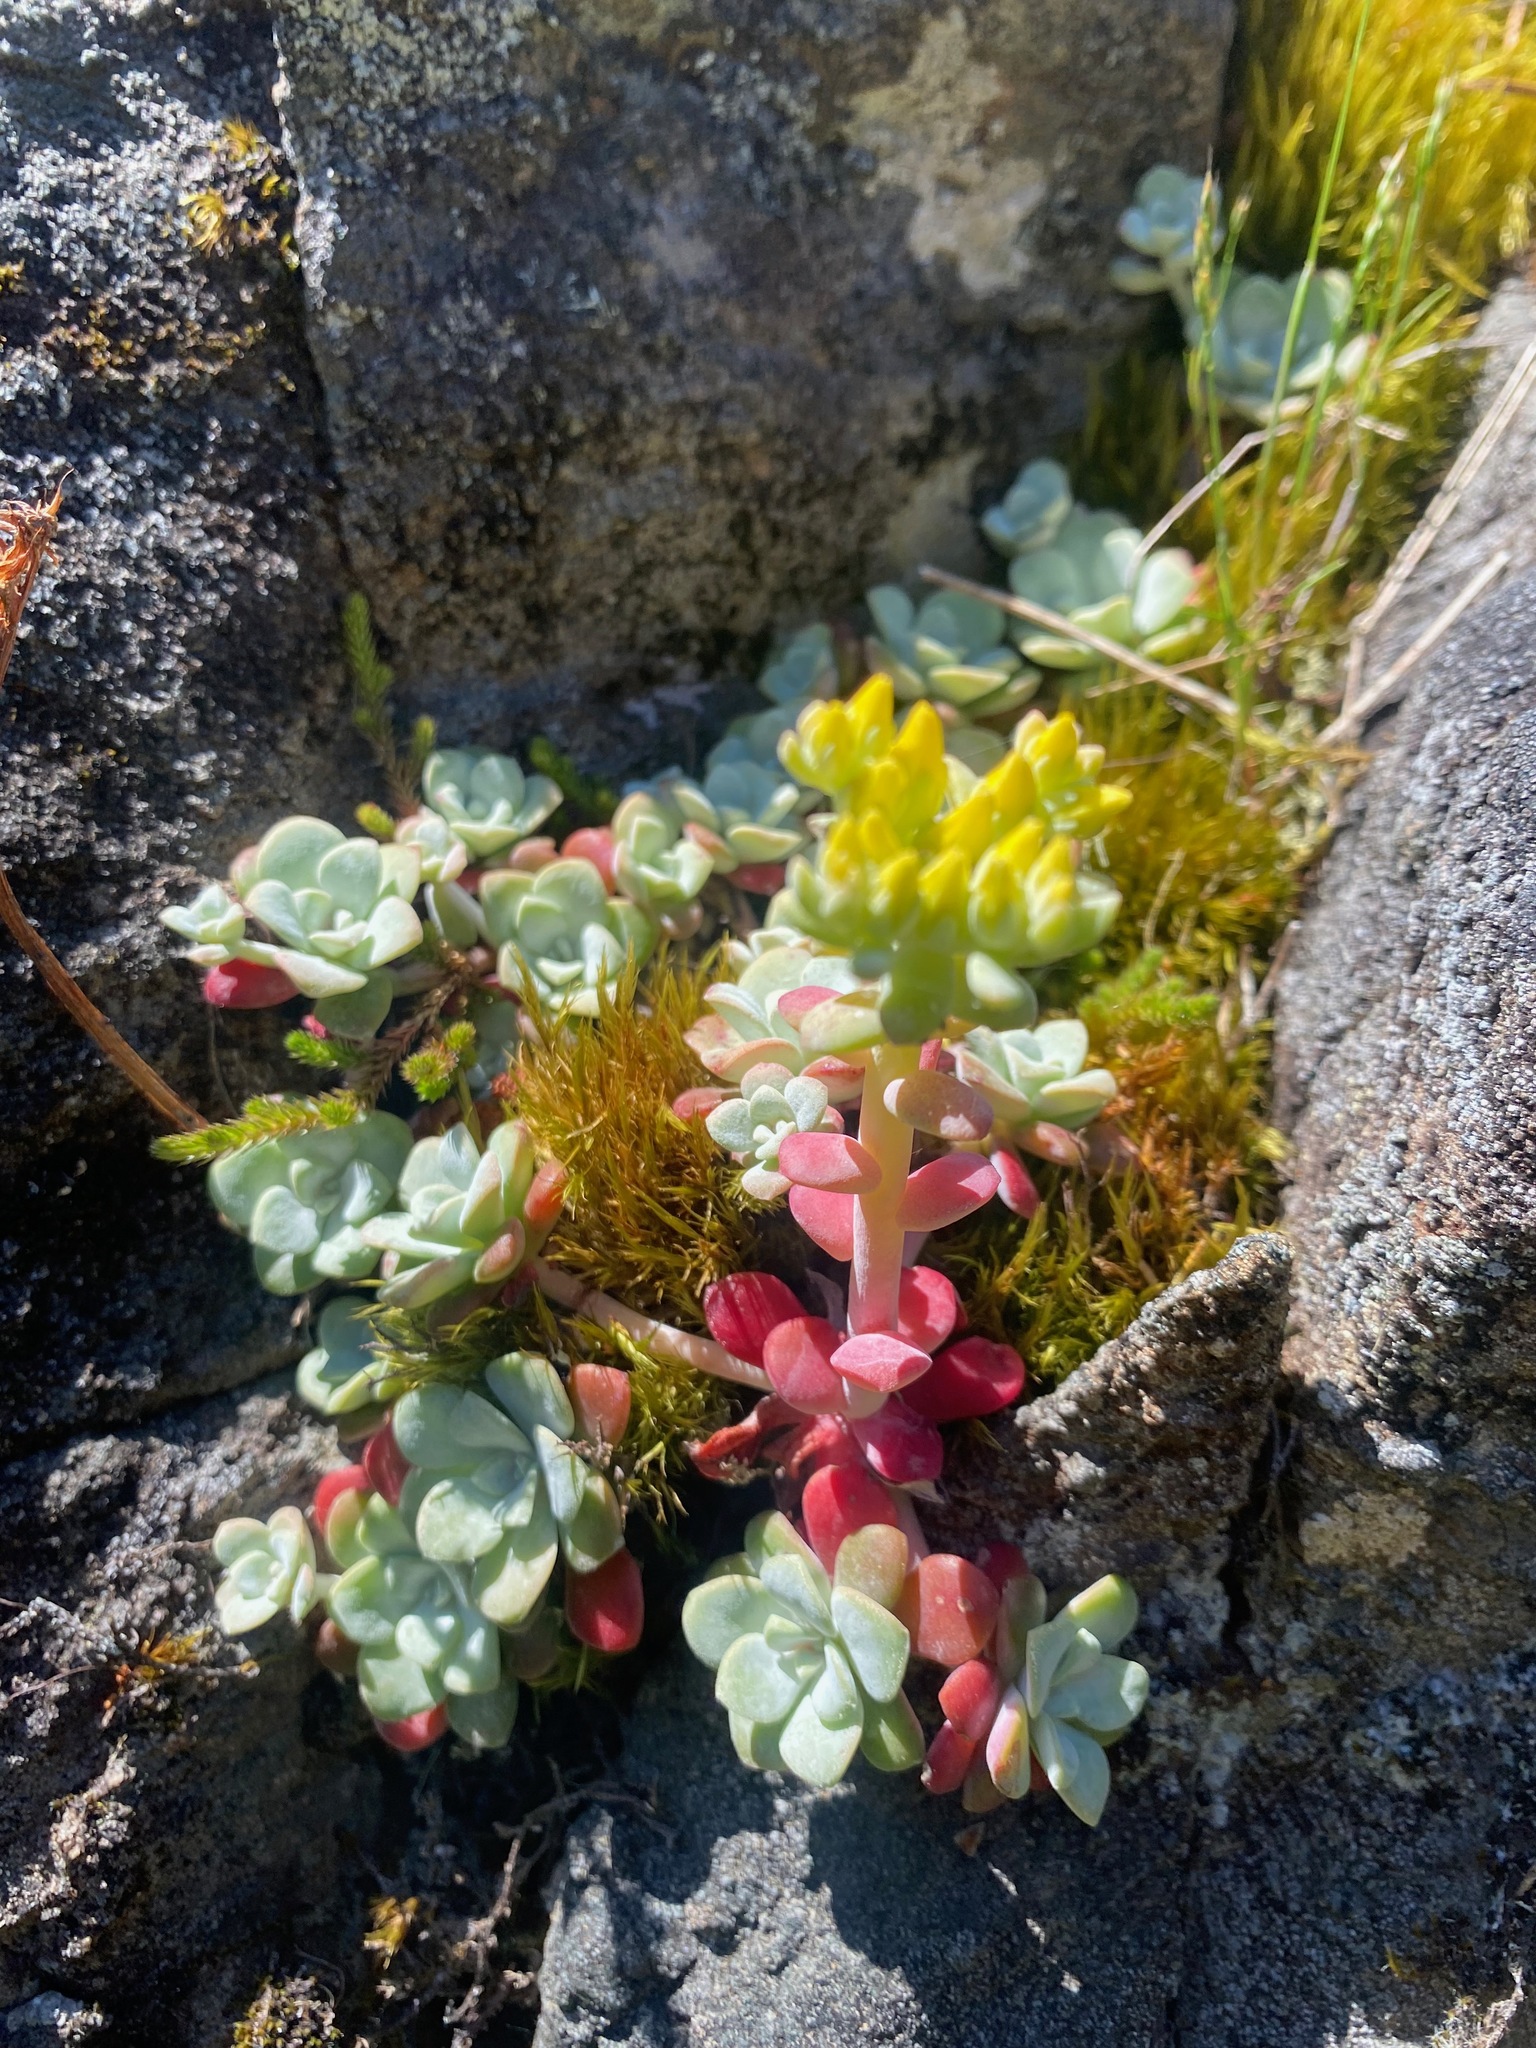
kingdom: Plantae
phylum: Tracheophyta
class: Magnoliopsida
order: Saxifragales
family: Crassulaceae
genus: Sedum
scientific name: Sedum spathulifolium
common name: Colorado stonecrop
